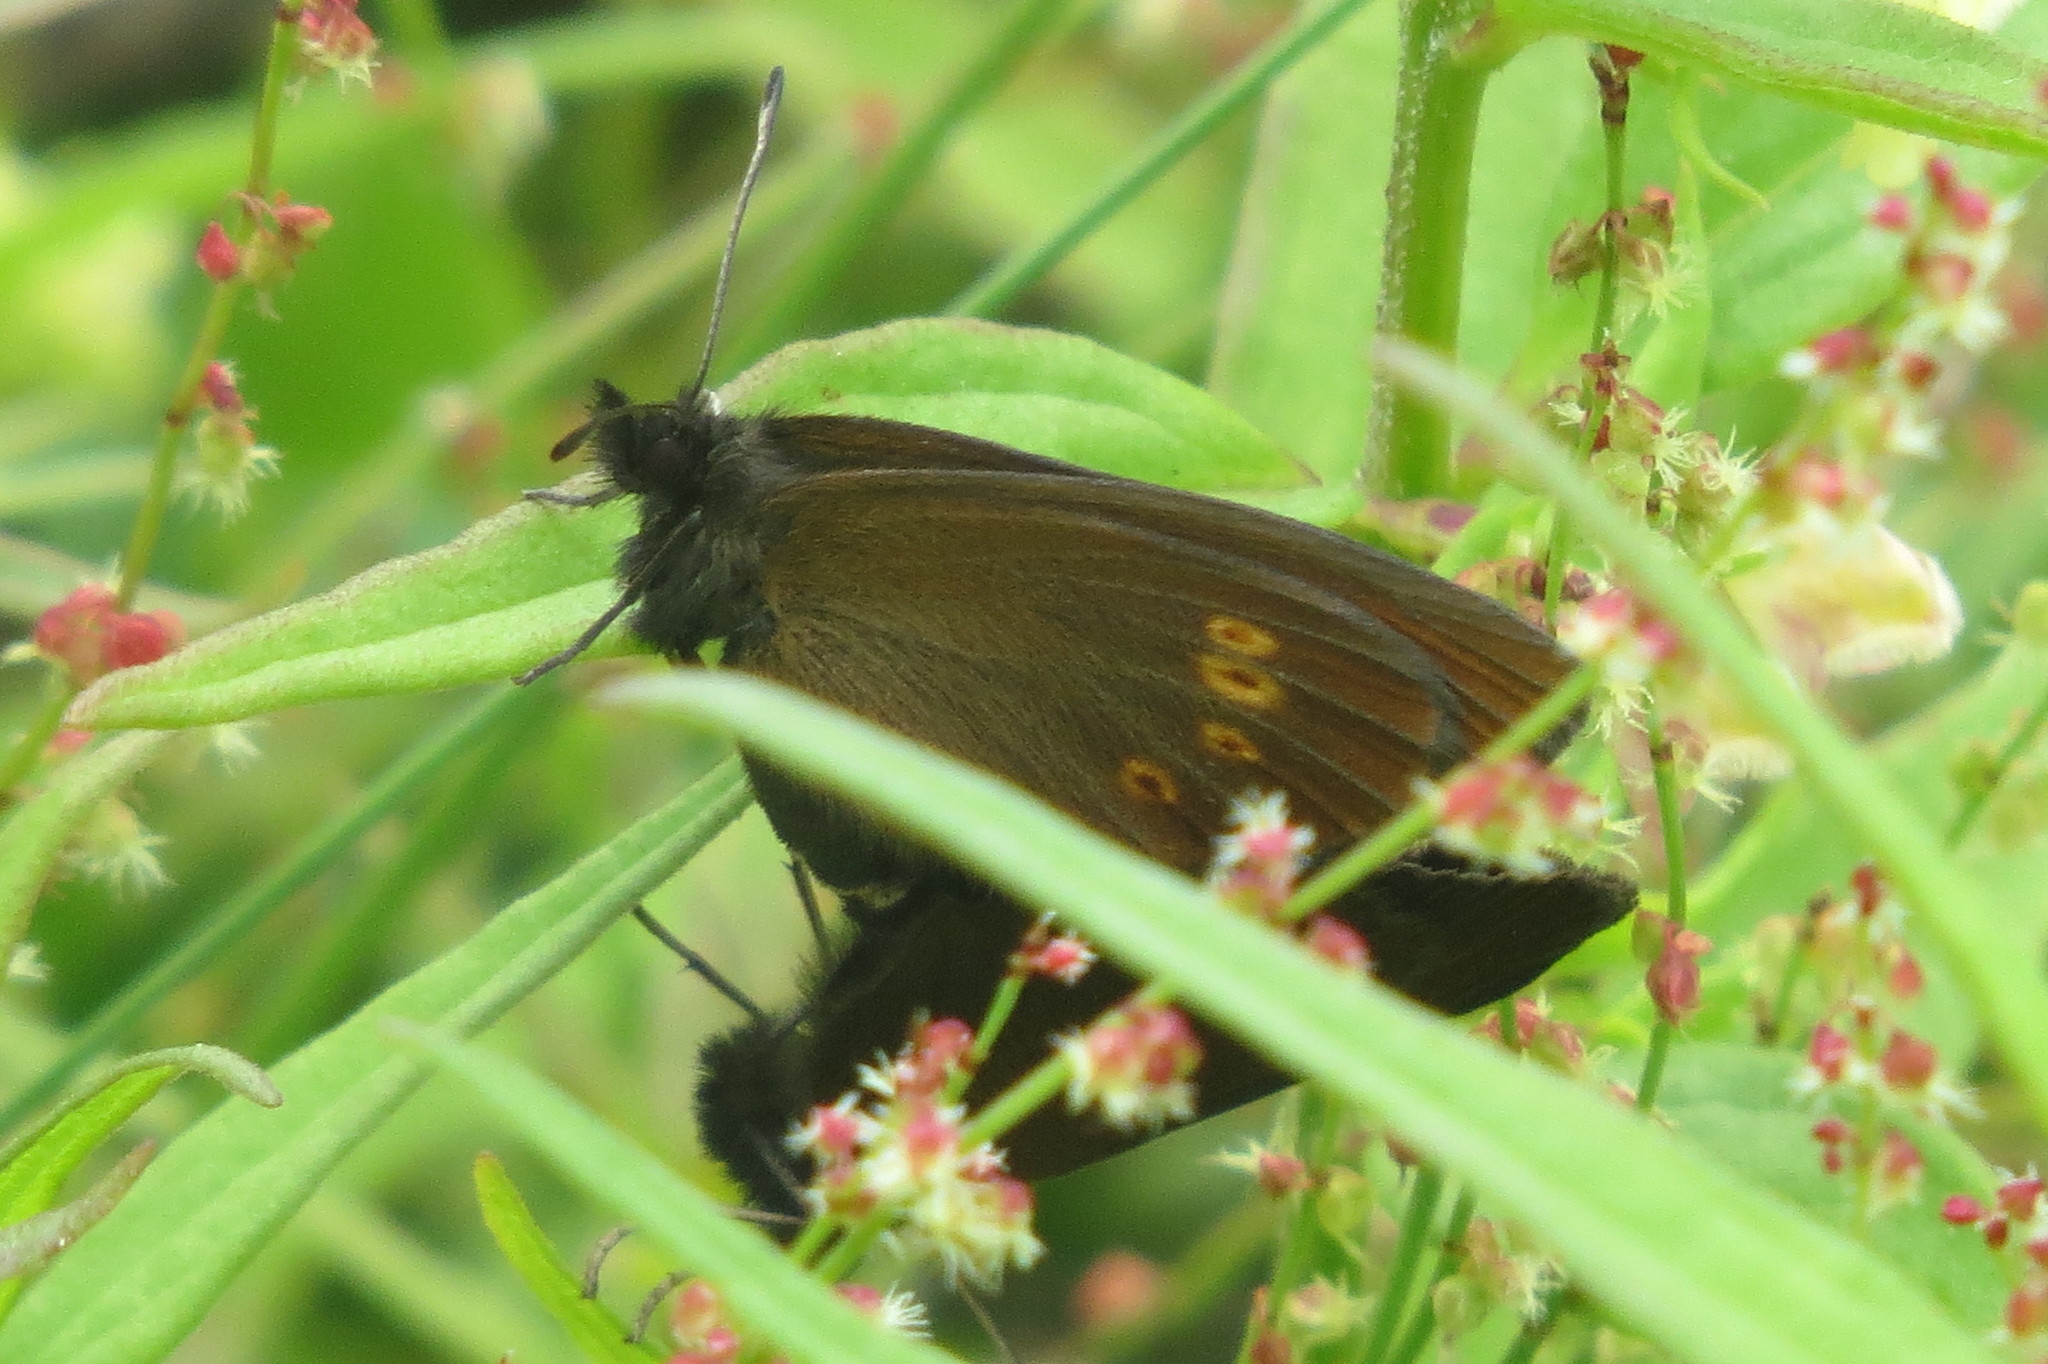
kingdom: Animalia
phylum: Arthropoda
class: Insecta
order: Lepidoptera
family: Nymphalidae
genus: Erebia
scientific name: Erebia melampus
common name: Lesser mountain ringlet
